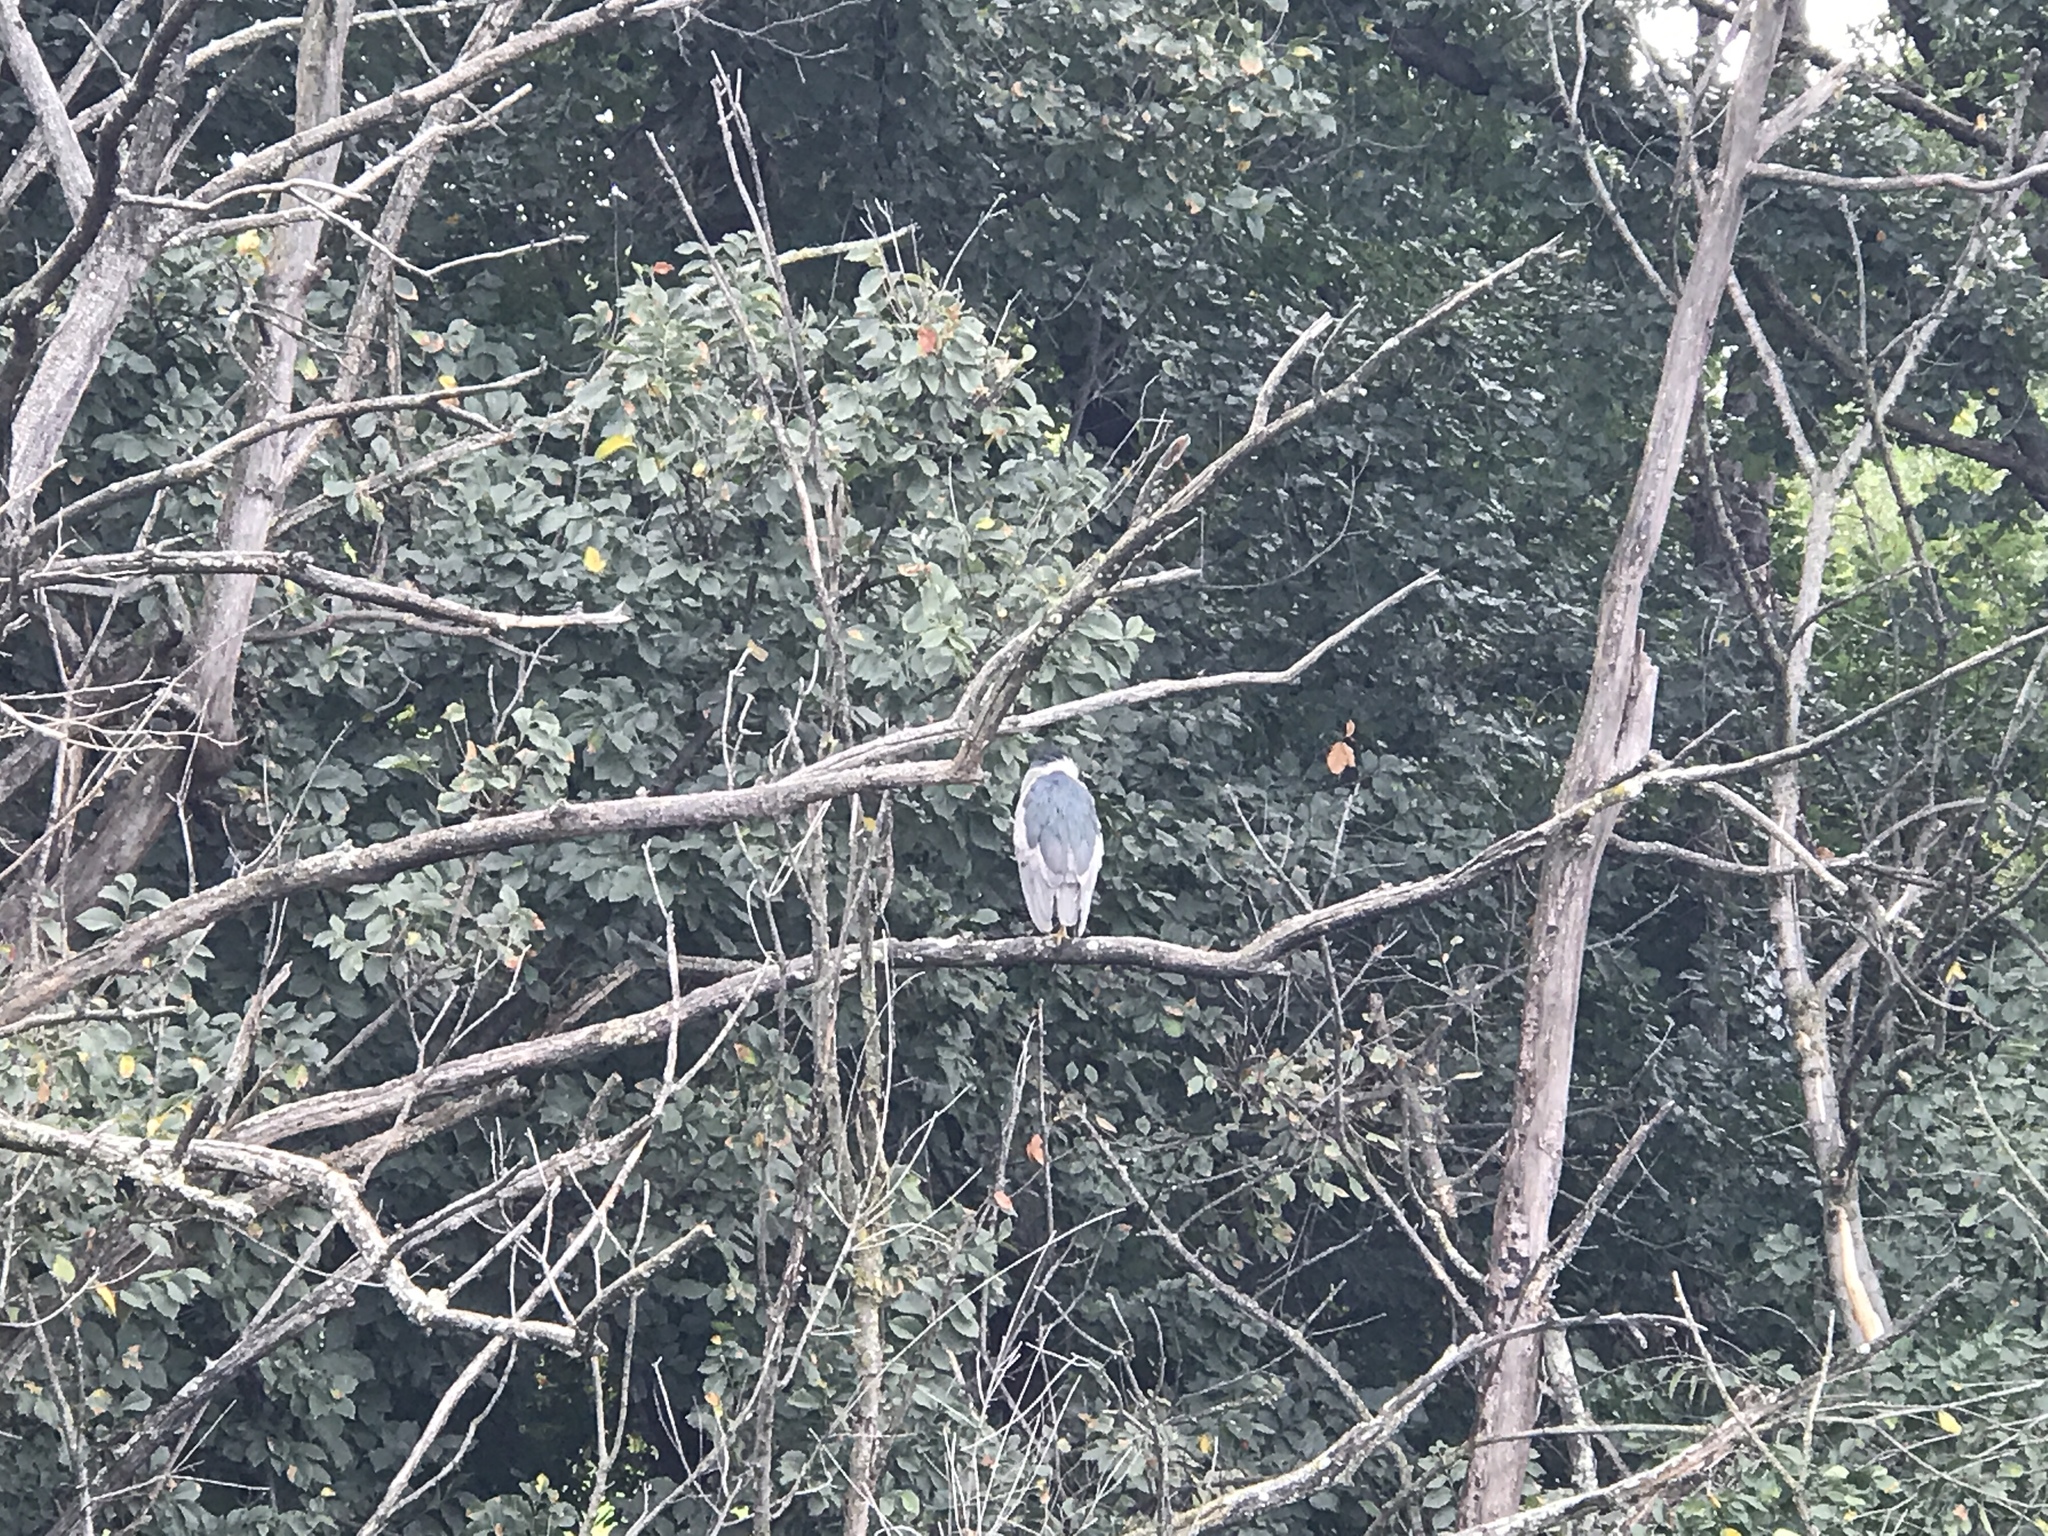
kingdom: Animalia
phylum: Chordata
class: Aves
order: Pelecaniformes
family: Ardeidae
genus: Nycticorax
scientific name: Nycticorax nycticorax
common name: Black-crowned night heron
